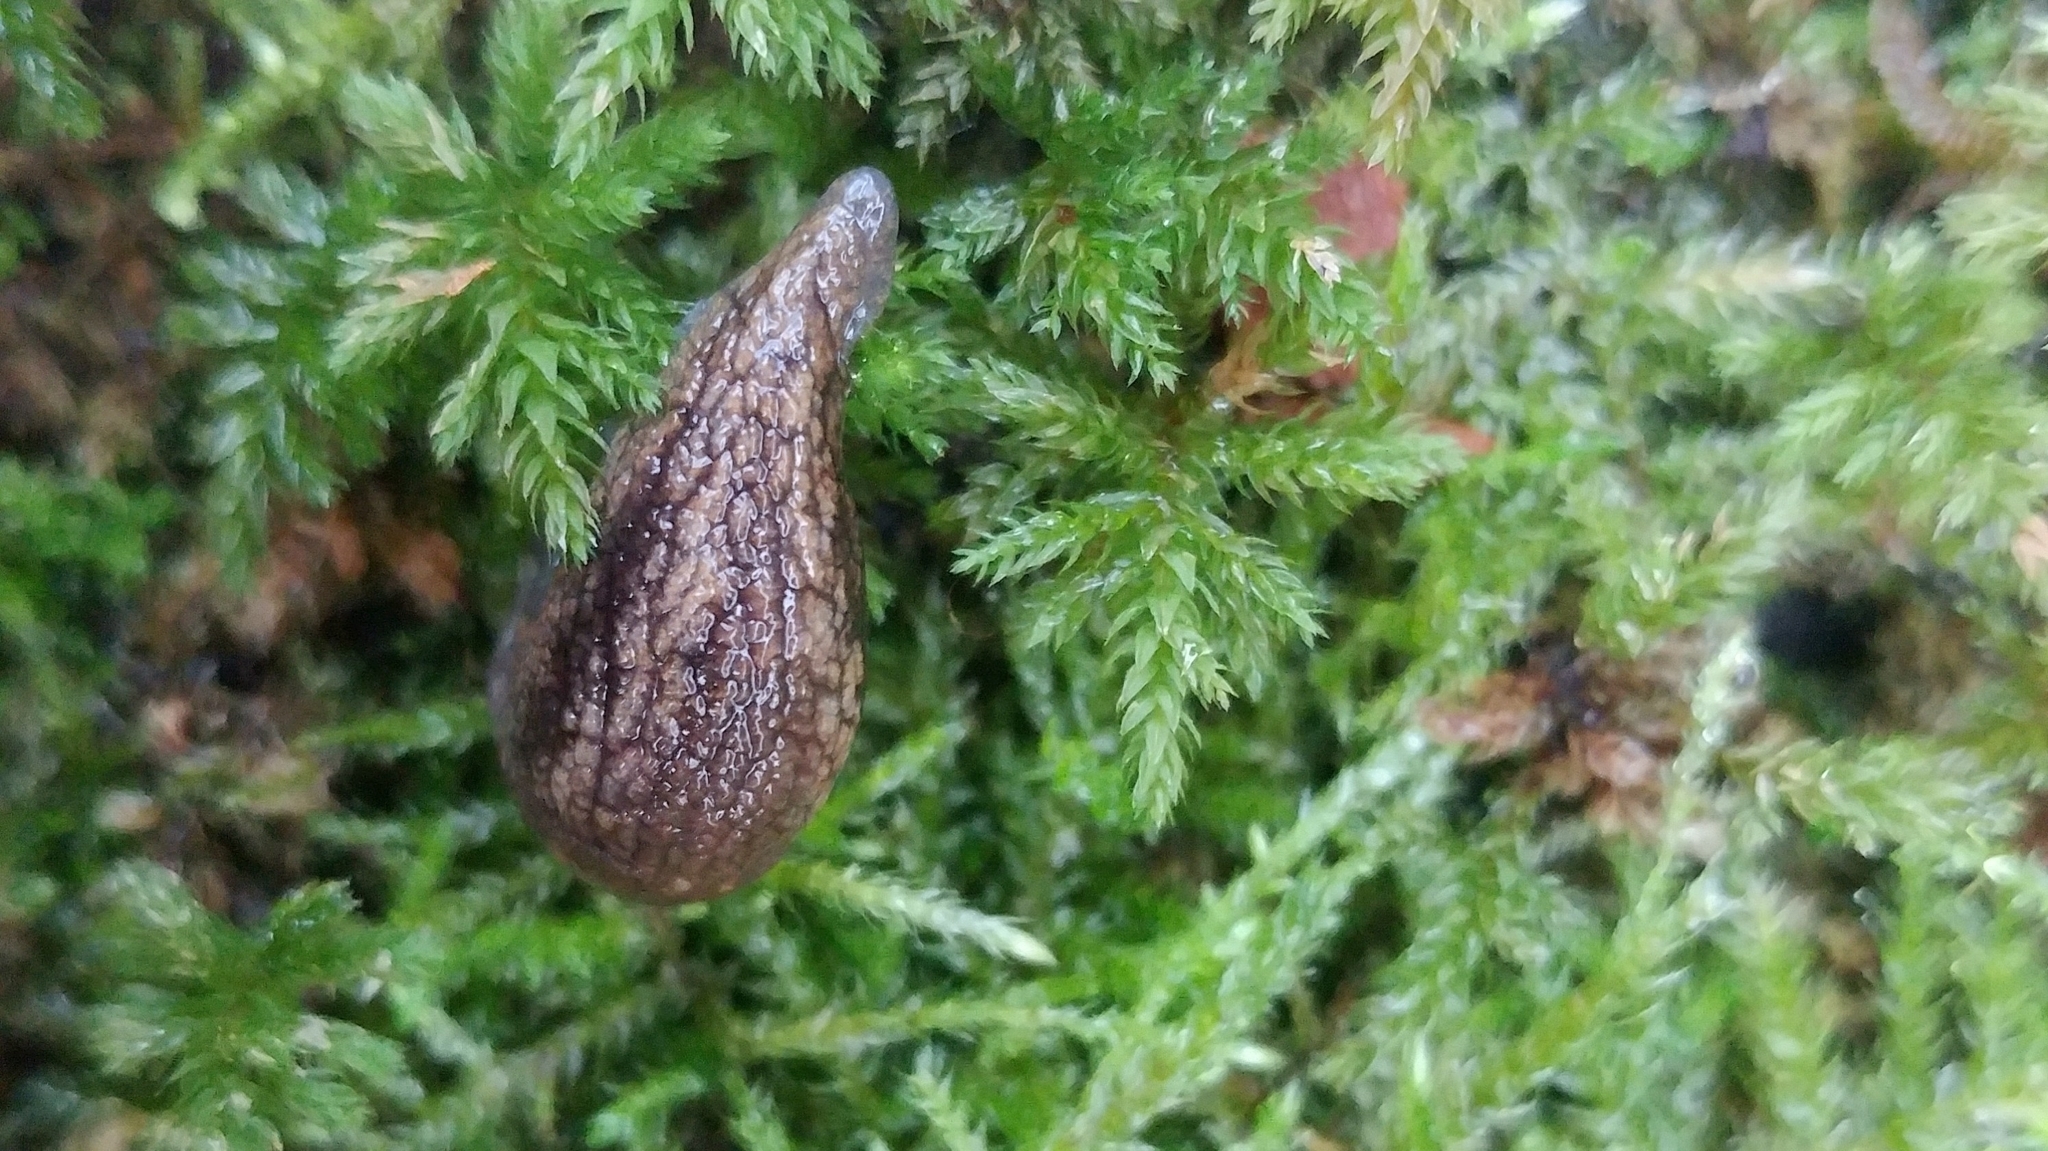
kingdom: Animalia
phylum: Mollusca
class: Gastropoda
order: Stylommatophora
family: Ariolimacidae
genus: Prophysaon
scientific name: Prophysaon vanattae
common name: Scarletback taildropper
